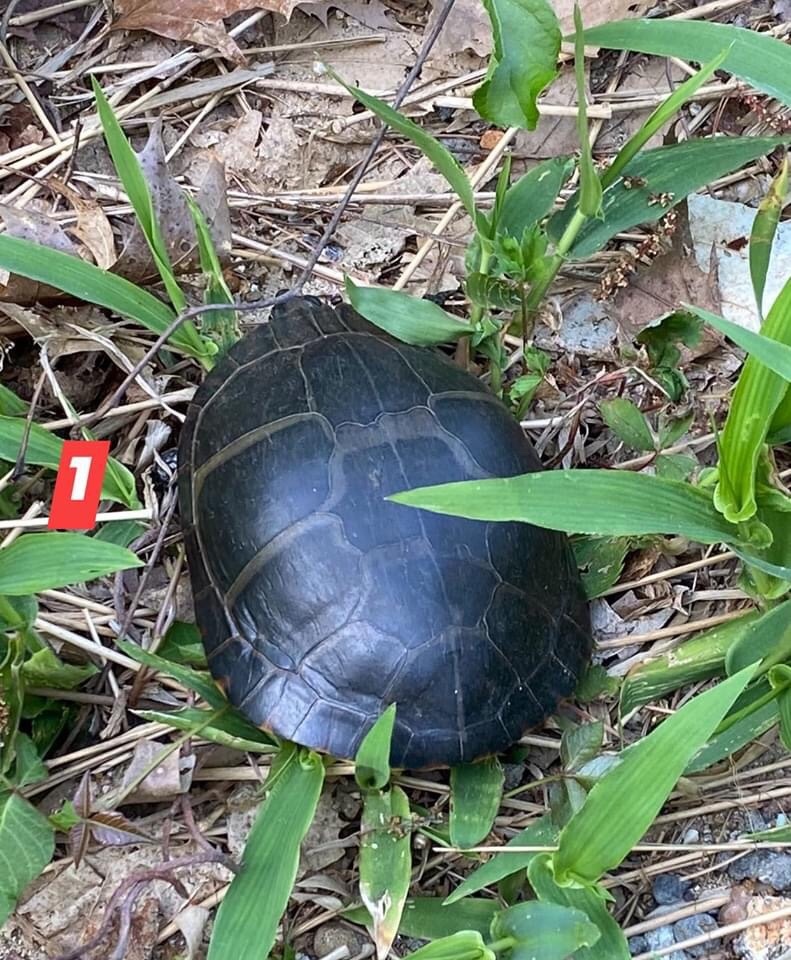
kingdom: Animalia
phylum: Chordata
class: Testudines
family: Emydidae
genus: Chrysemys
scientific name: Chrysemys picta
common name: Painted turtle
